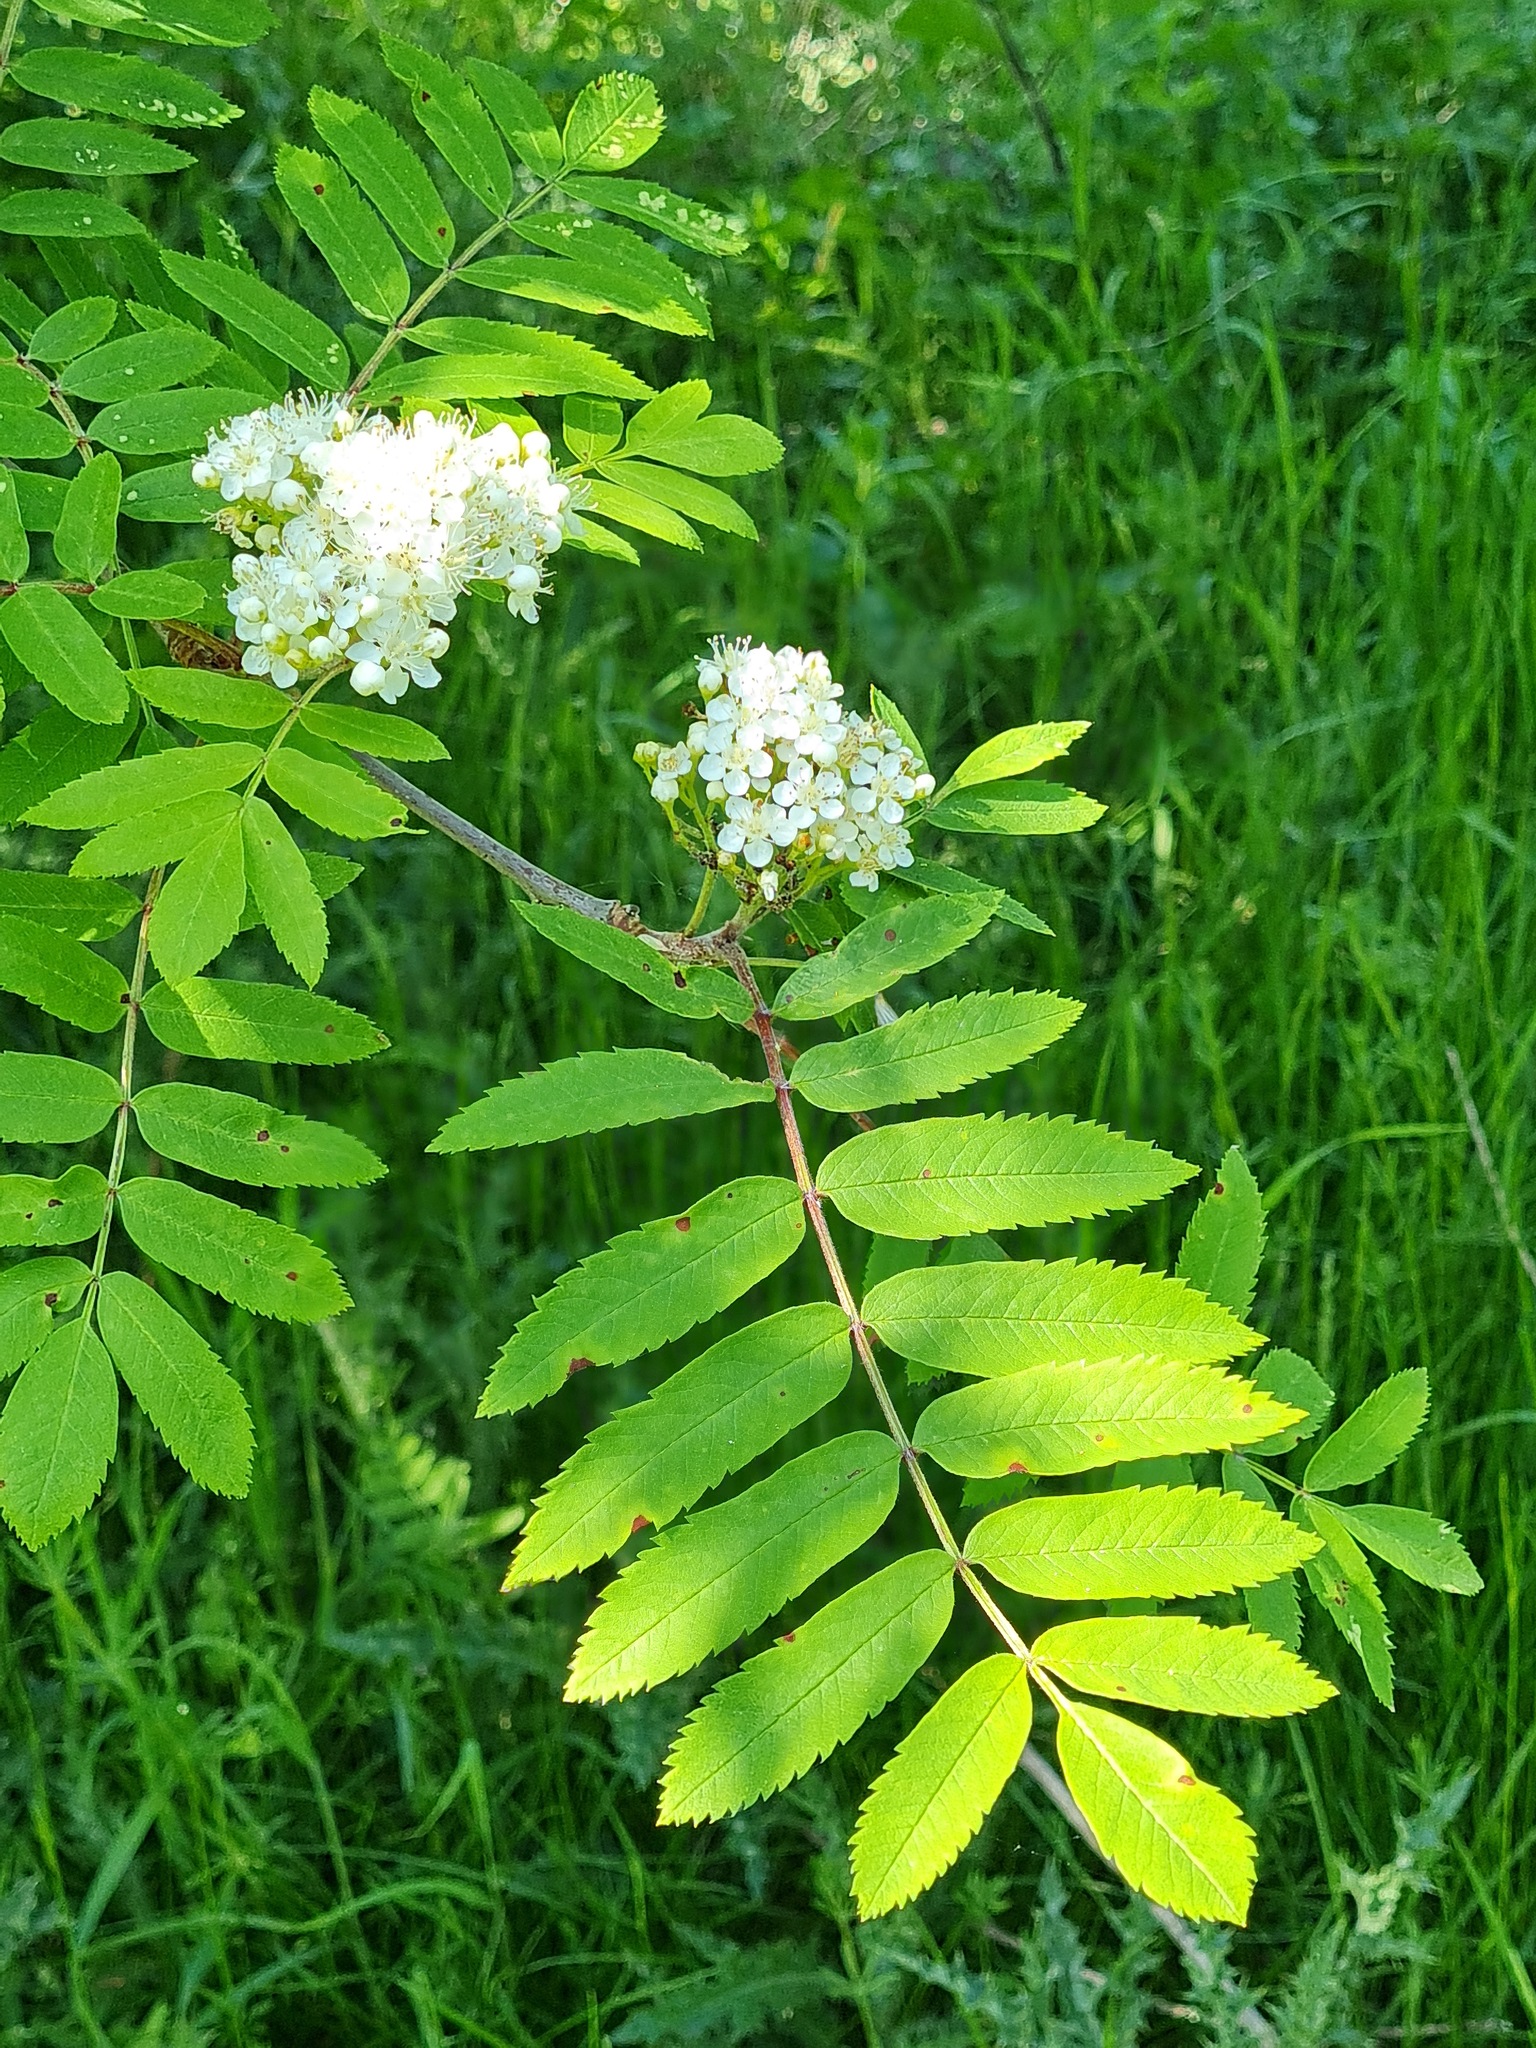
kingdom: Plantae
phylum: Tracheophyta
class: Magnoliopsida
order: Rosales
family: Rosaceae
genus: Sorbus
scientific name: Sorbus aucuparia
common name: Rowan
